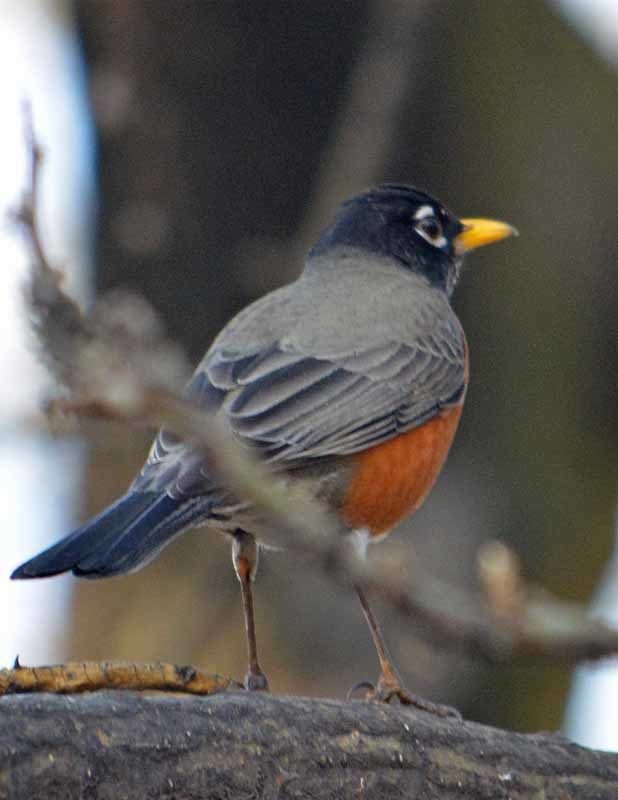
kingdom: Animalia
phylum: Chordata
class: Aves
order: Passeriformes
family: Turdidae
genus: Turdus
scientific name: Turdus migratorius
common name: American robin
